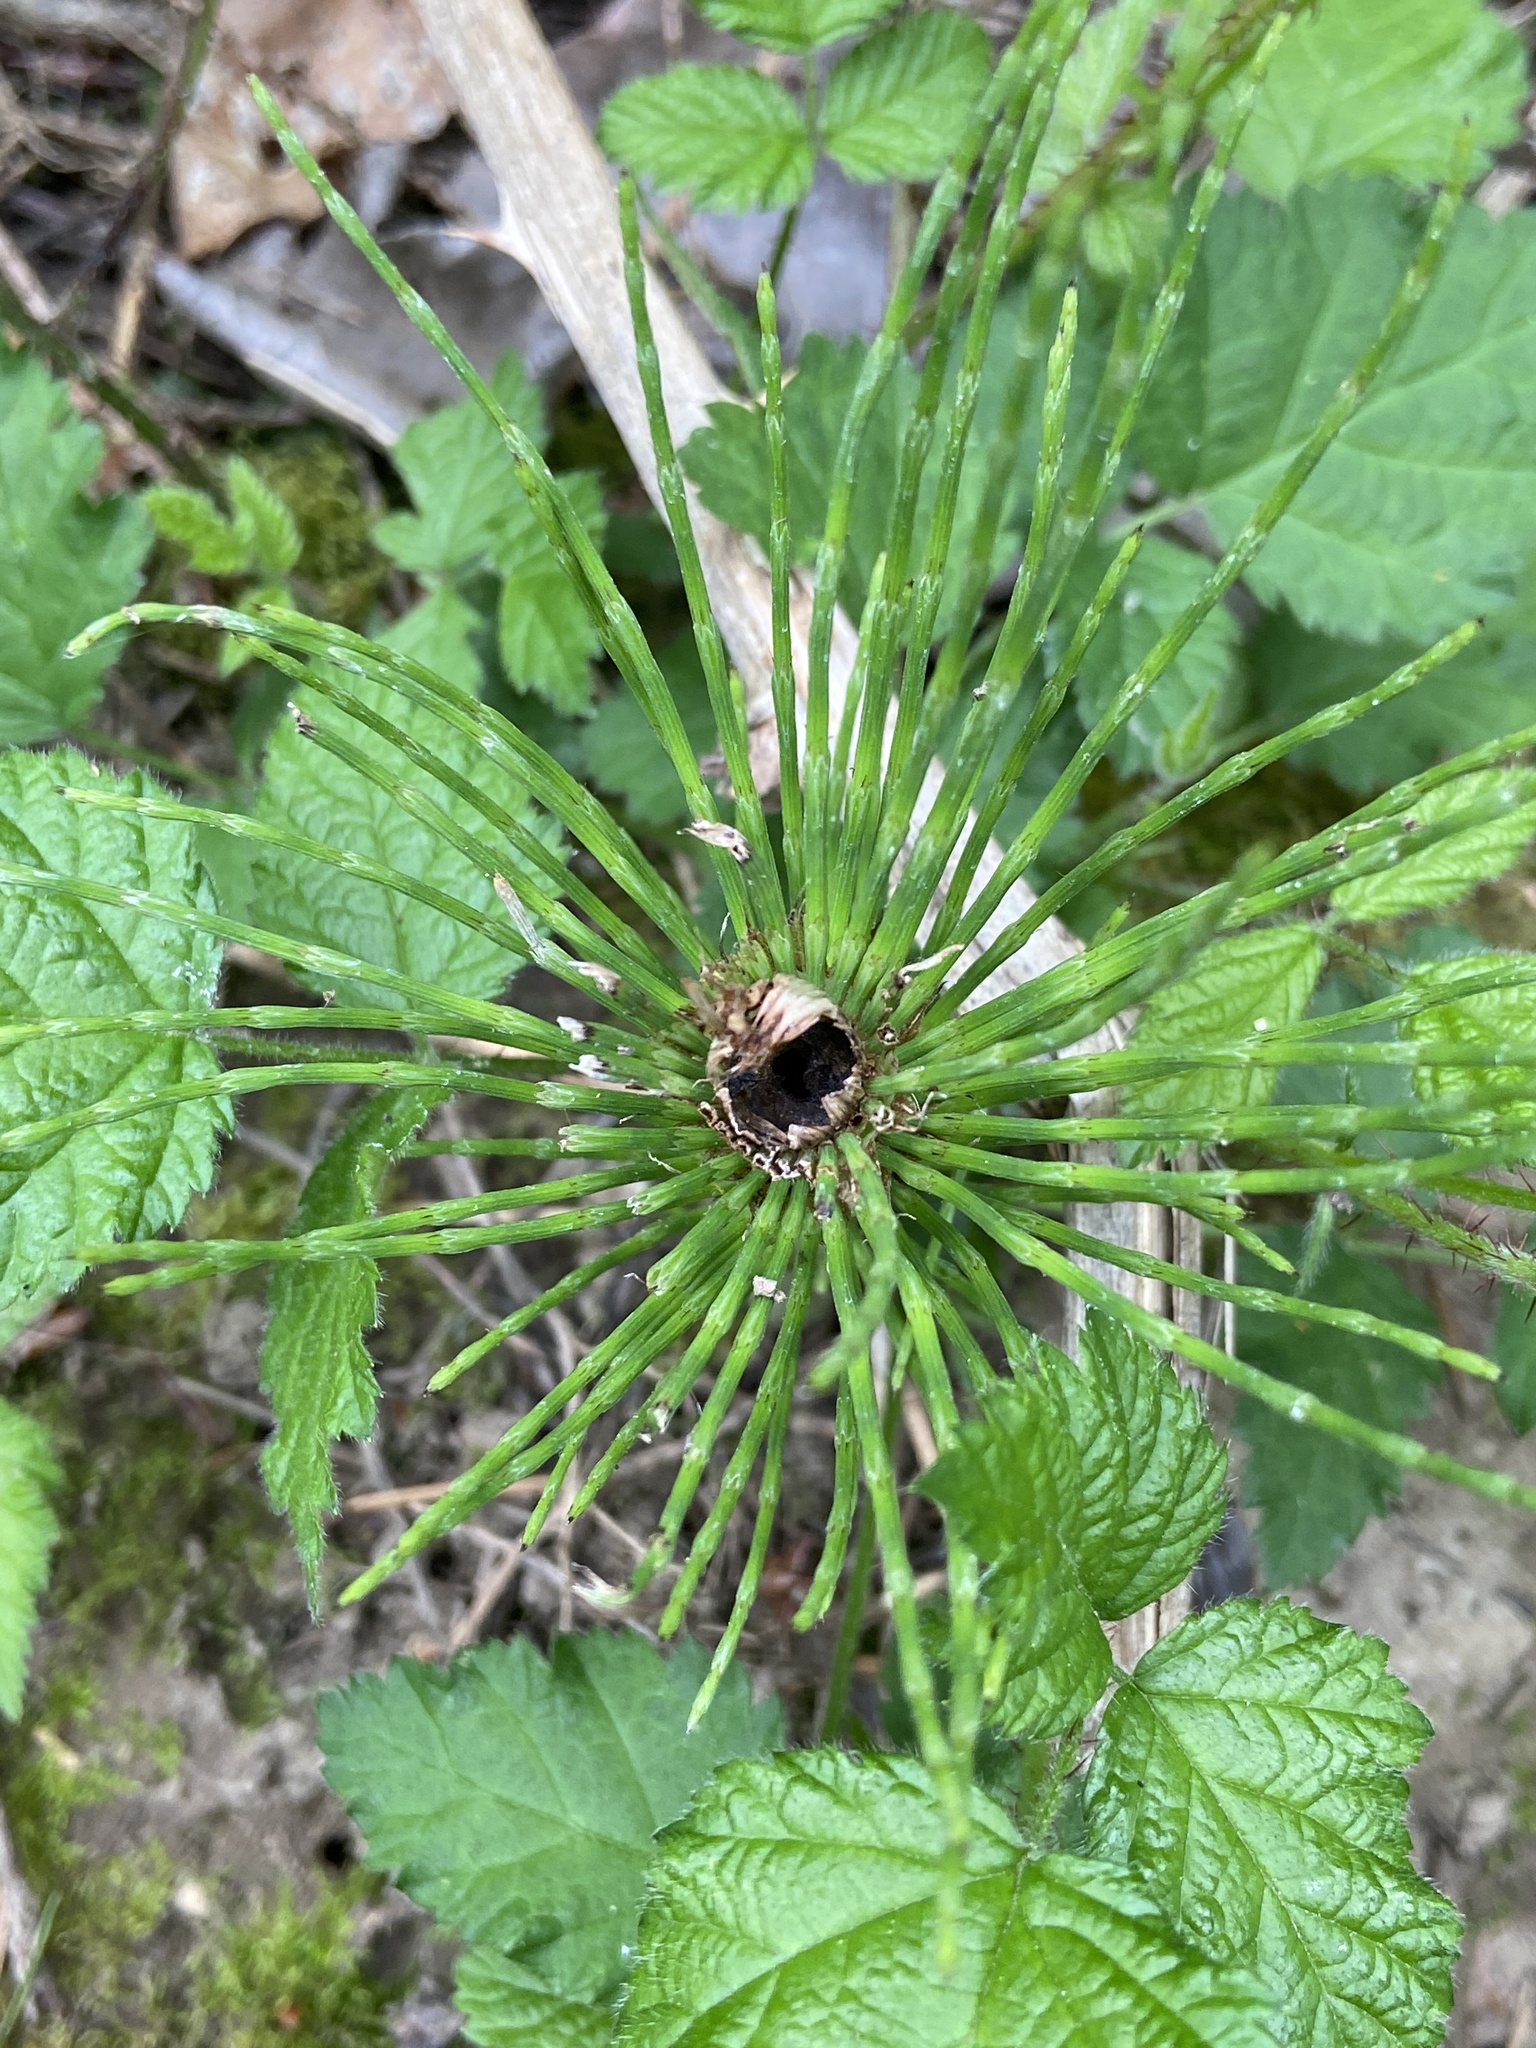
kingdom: Plantae
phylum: Tracheophyta
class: Polypodiopsida
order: Equisetales
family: Equisetaceae
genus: Equisetum
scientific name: Equisetum braunii
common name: Braun's horsetail
